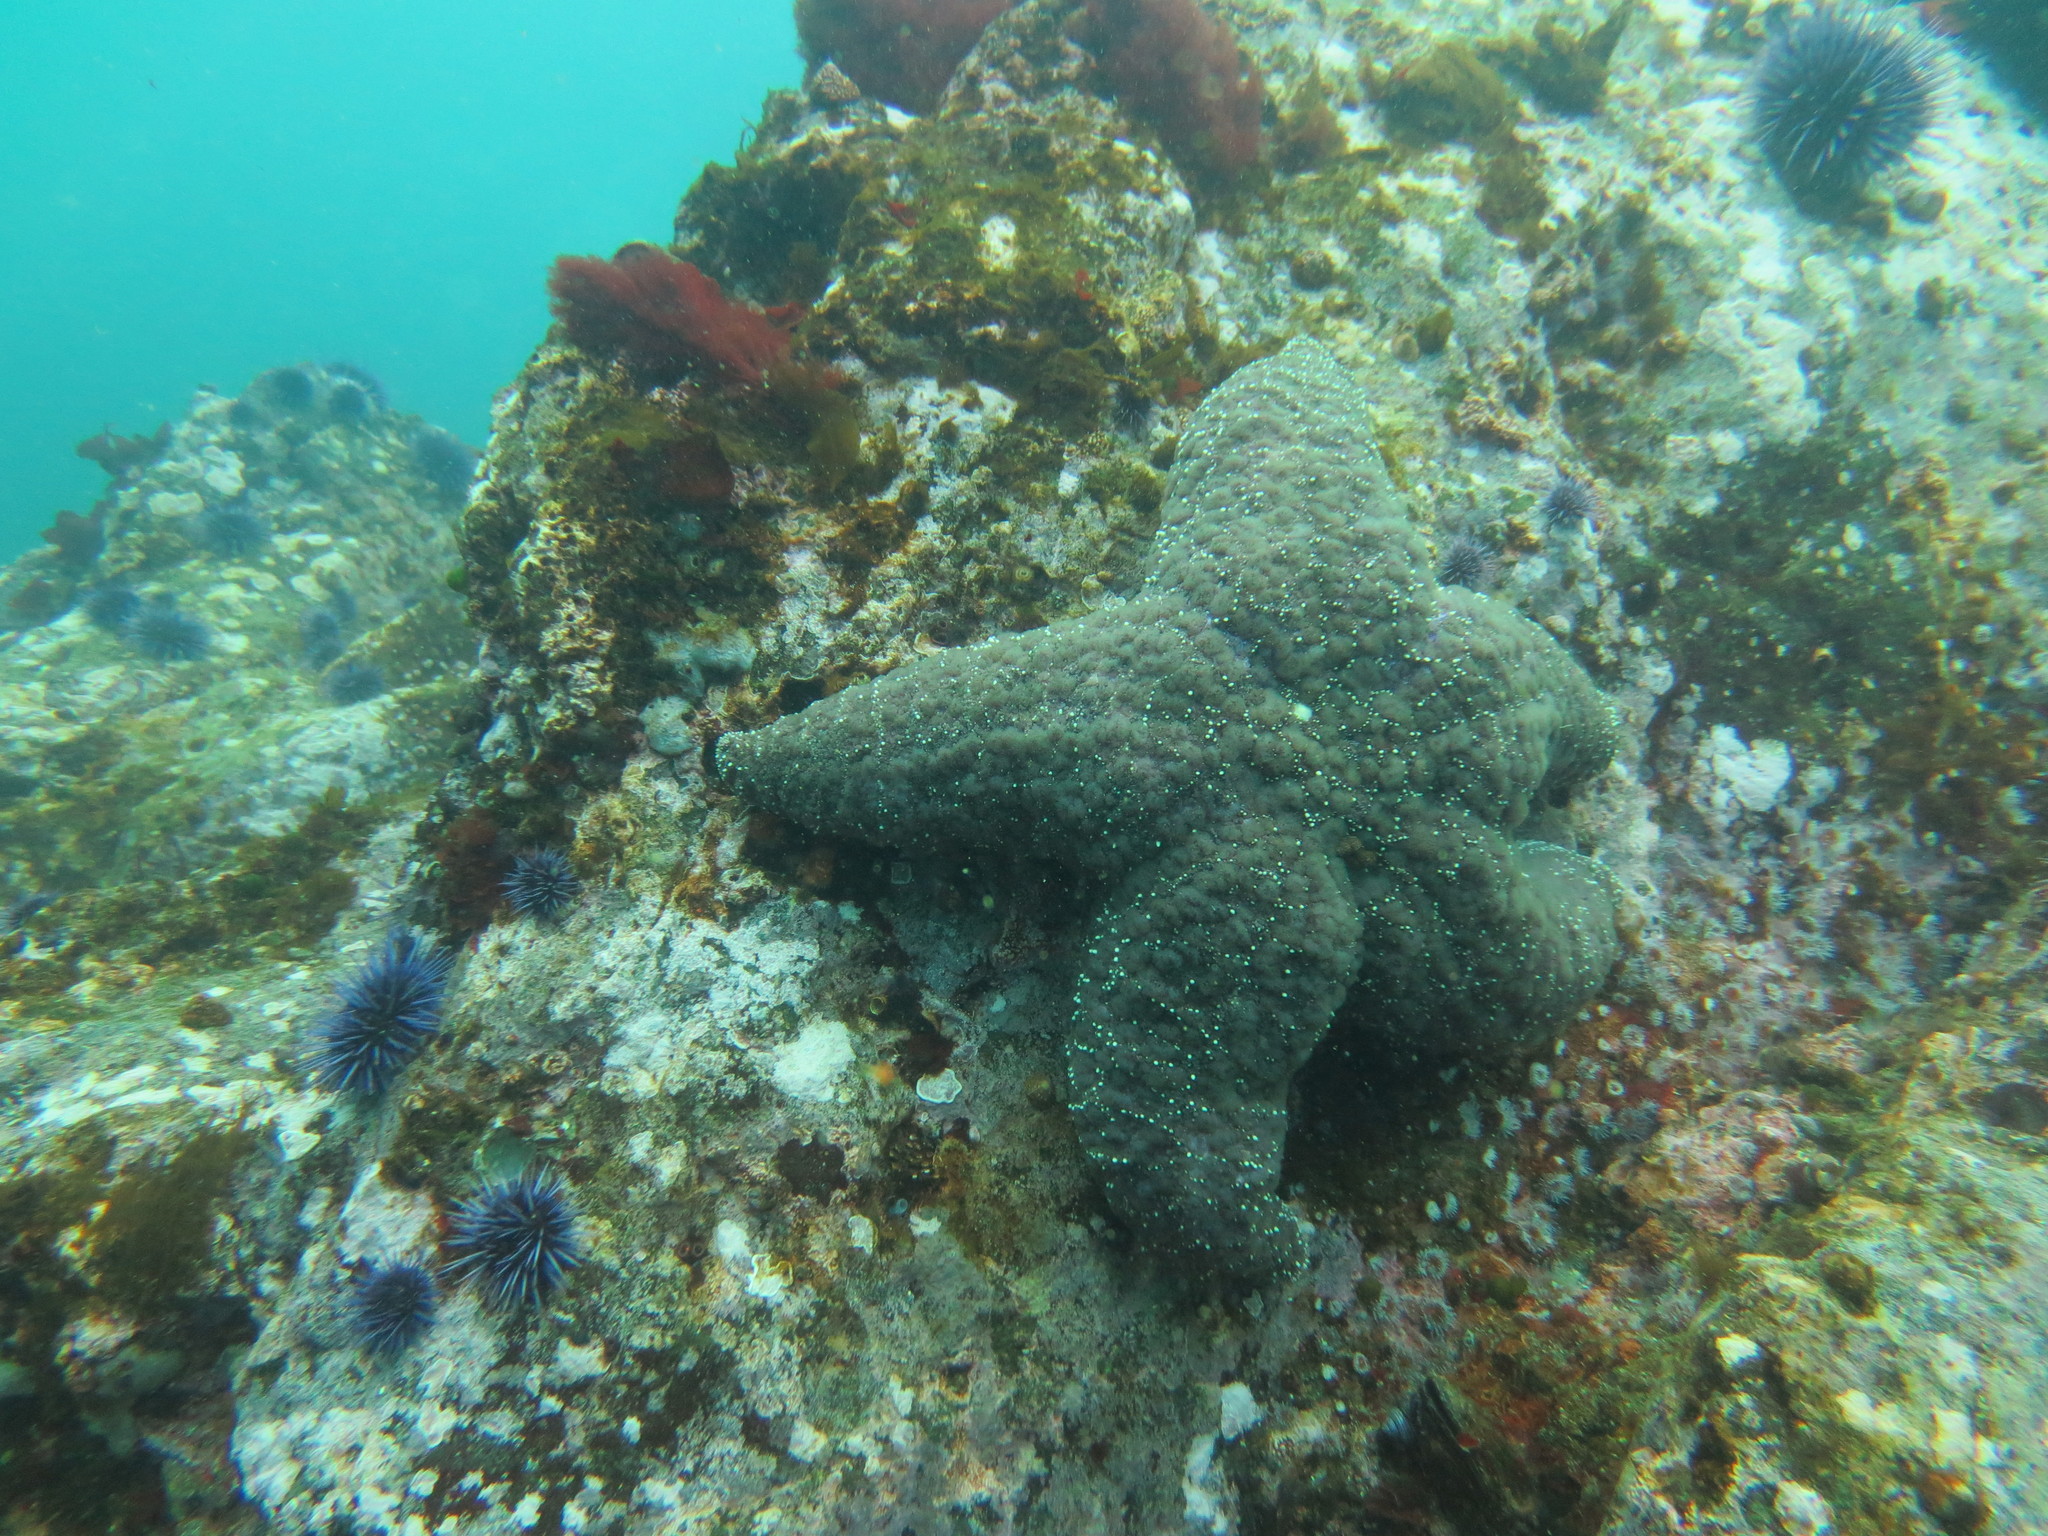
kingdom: Animalia
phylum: Echinodermata
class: Asteroidea
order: Forcipulatida
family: Asteriidae
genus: Pisaster
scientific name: Pisaster ochraceus
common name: Ochre stars
